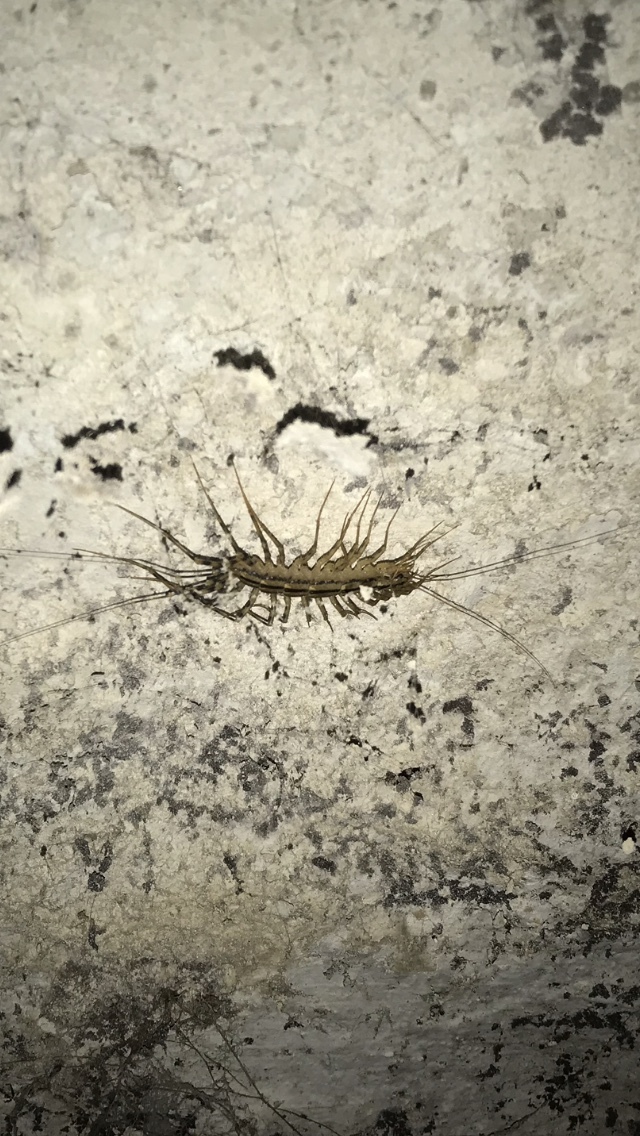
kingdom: Animalia
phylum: Arthropoda
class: Chilopoda
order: Scutigeromorpha
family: Scutigeridae
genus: Scutigera
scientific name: Scutigera coleoptrata
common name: House centipede
